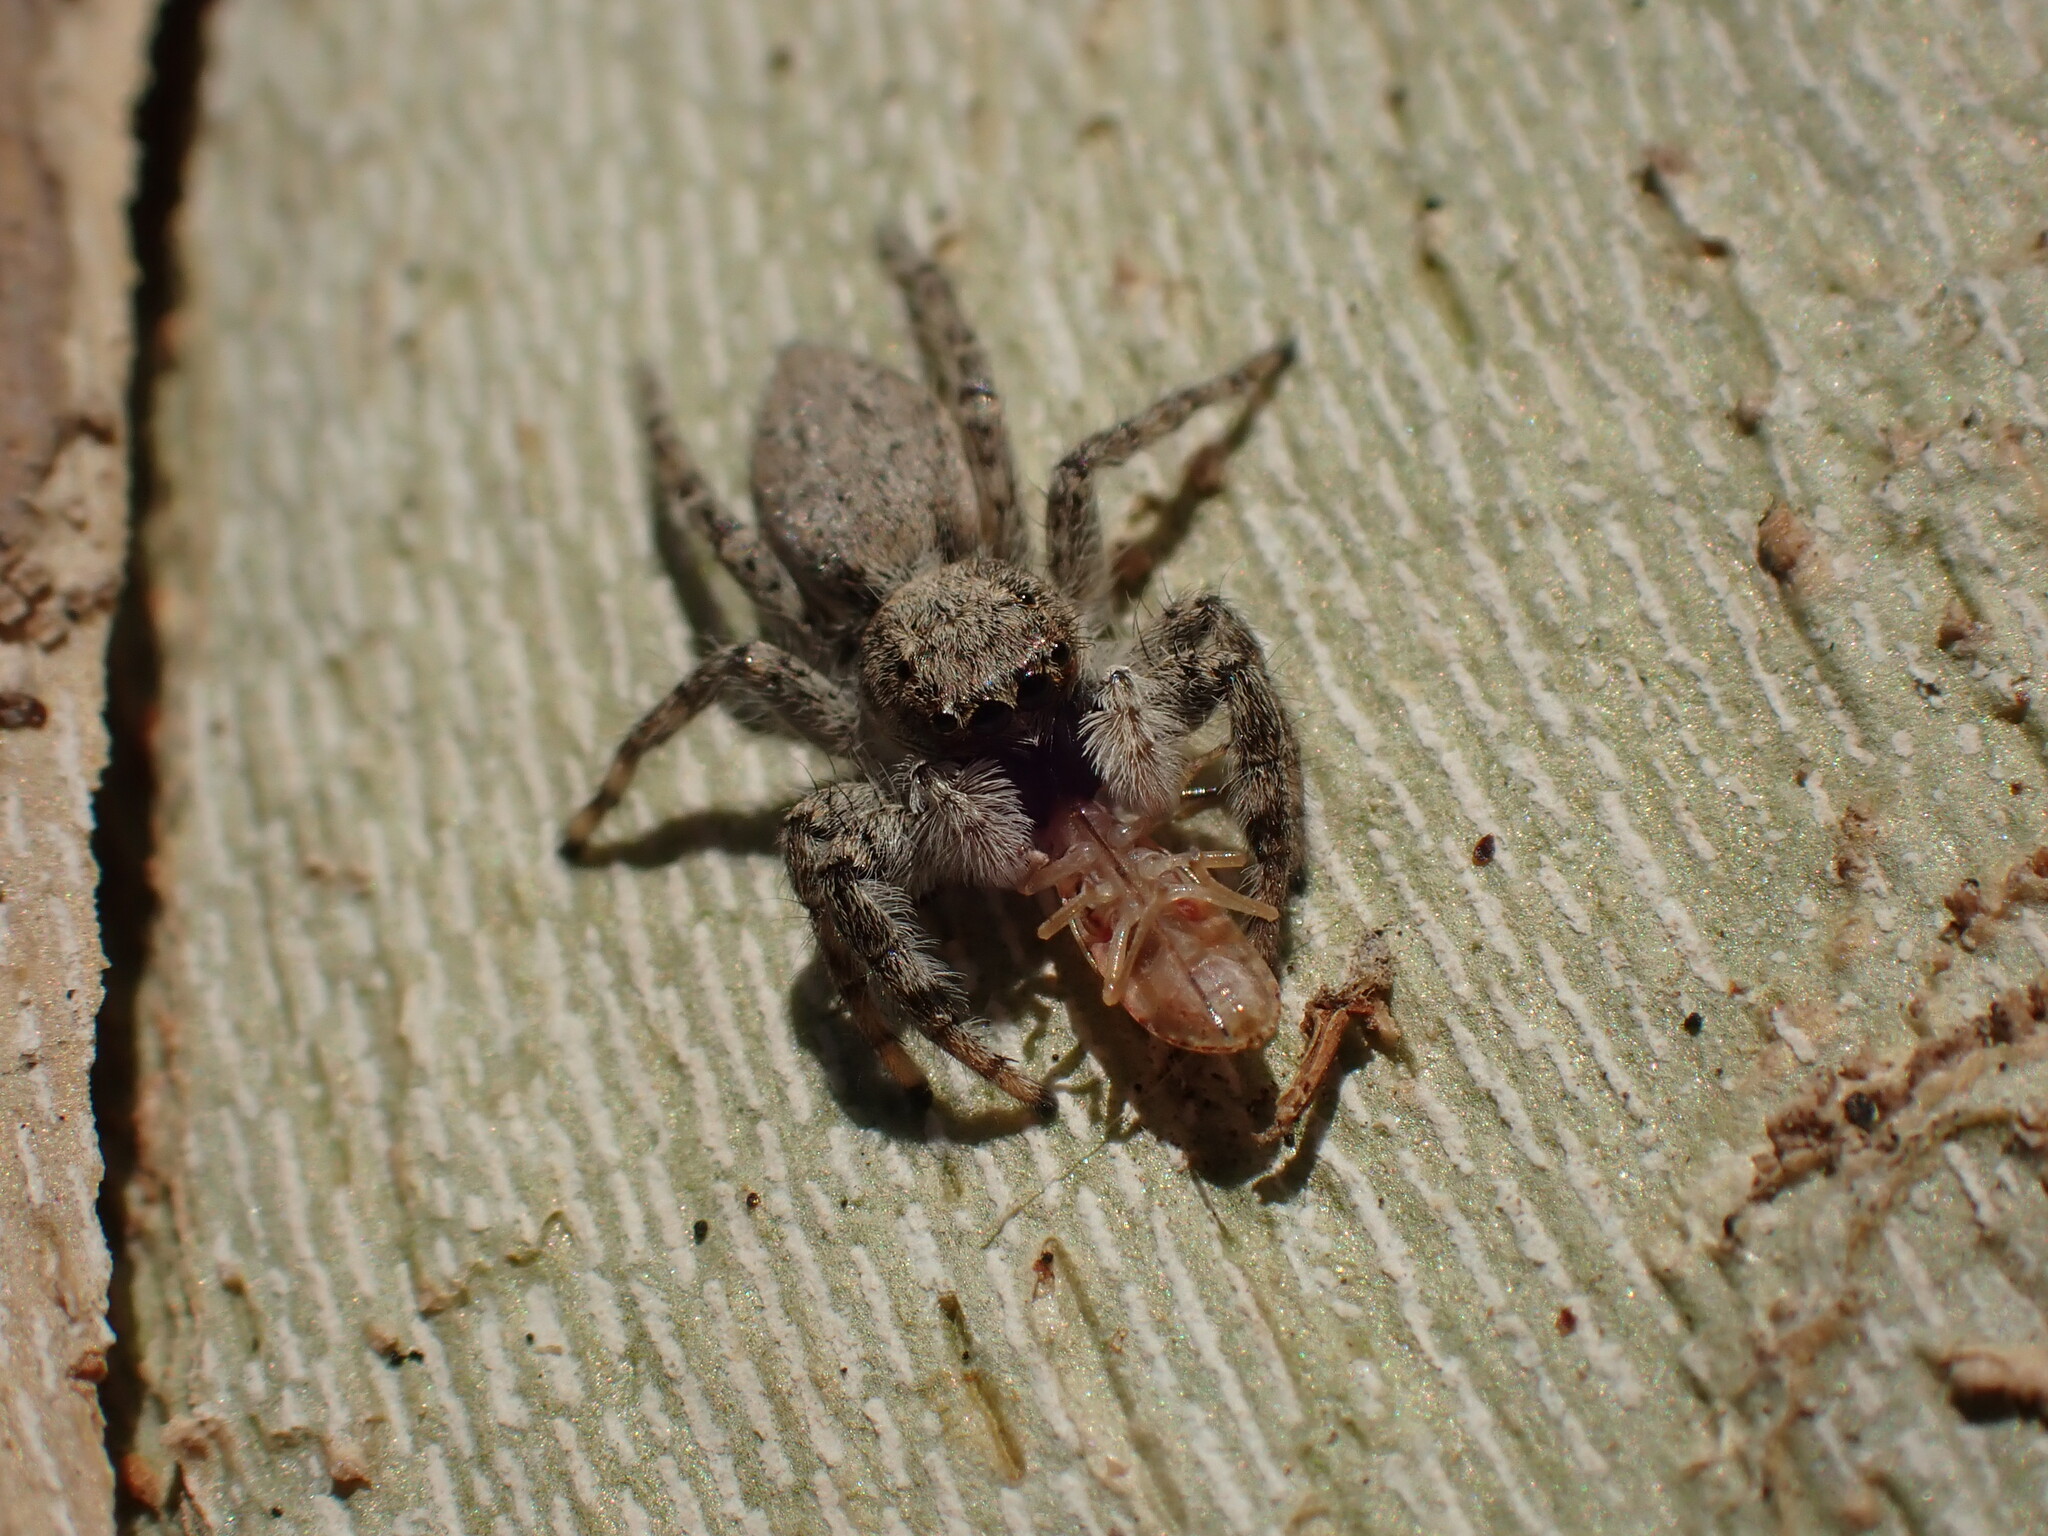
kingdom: Animalia
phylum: Arthropoda
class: Arachnida
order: Araneae
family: Salticidae
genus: Menemerus
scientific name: Menemerus taeniatus
